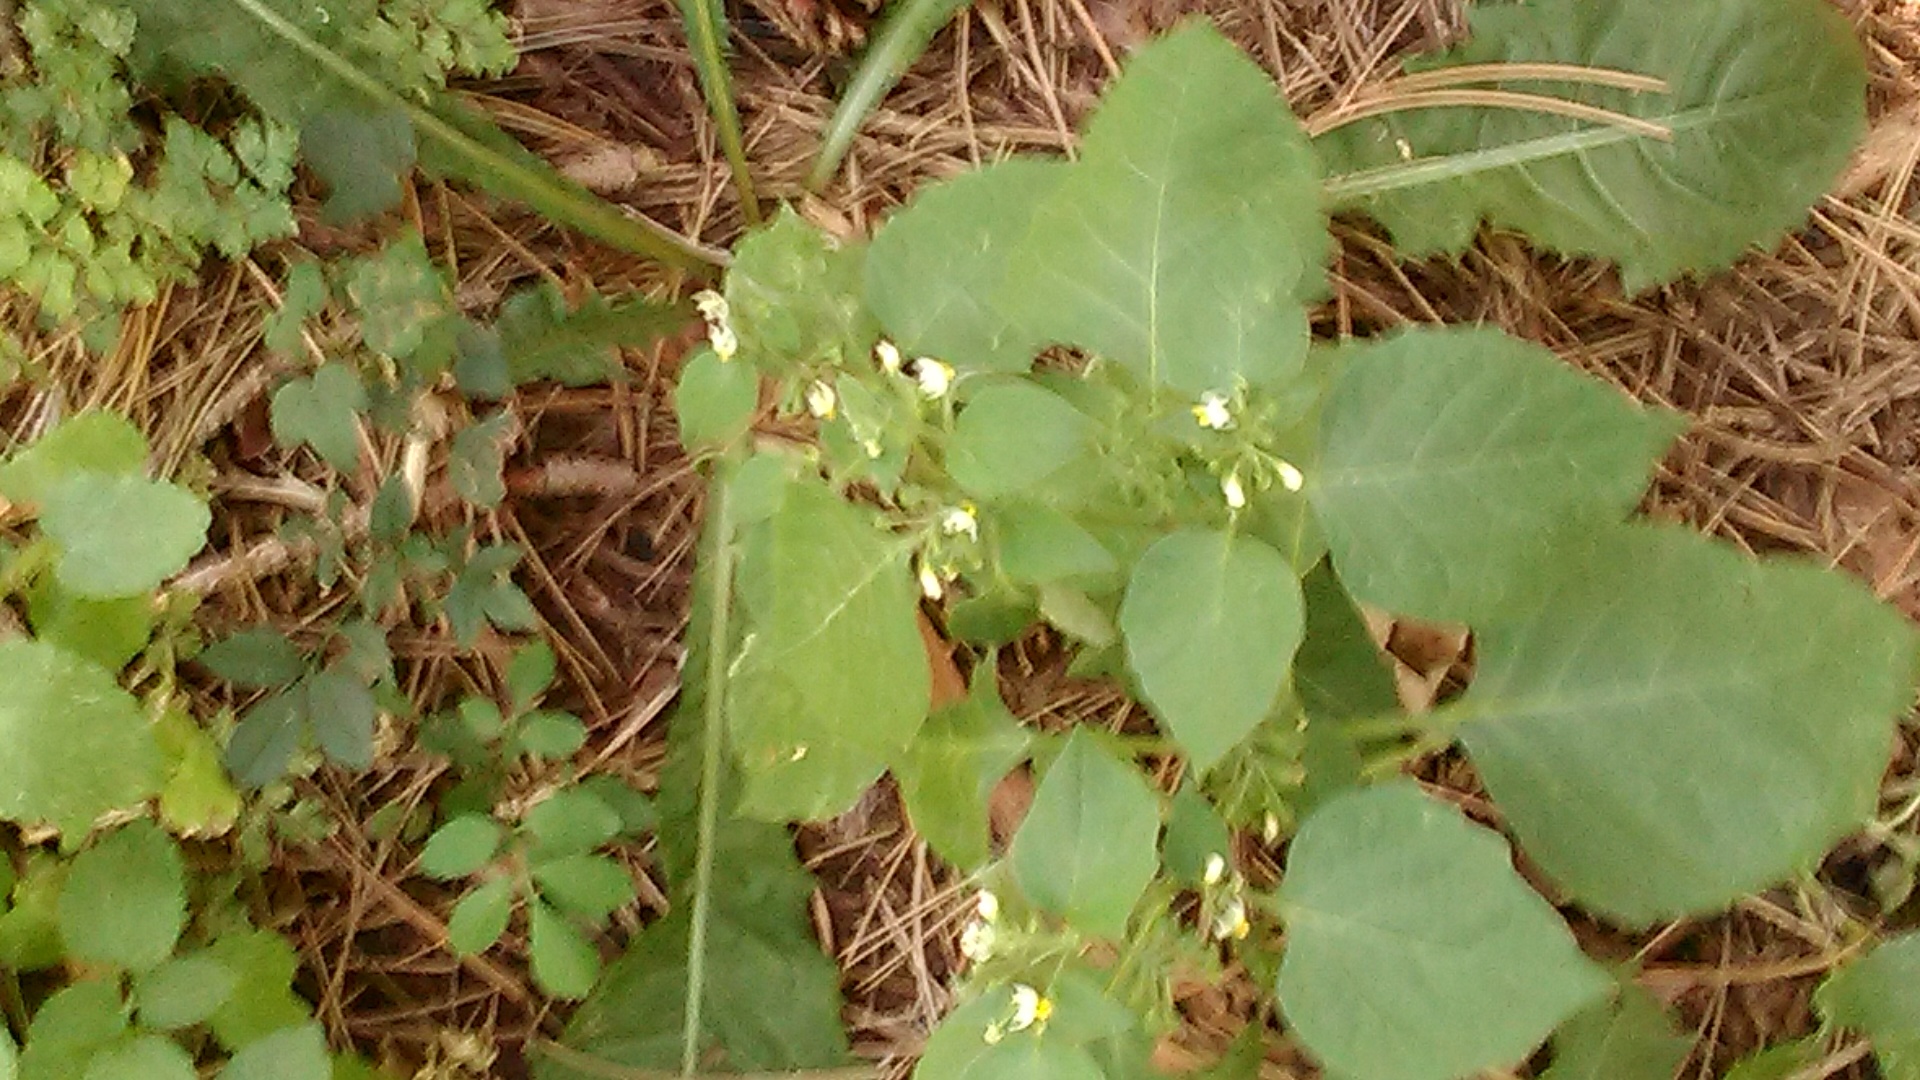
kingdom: Plantae
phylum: Tracheophyta
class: Magnoliopsida
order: Solanales
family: Solanaceae
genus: Solanum
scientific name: Solanum nigrum
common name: Black nightshade
